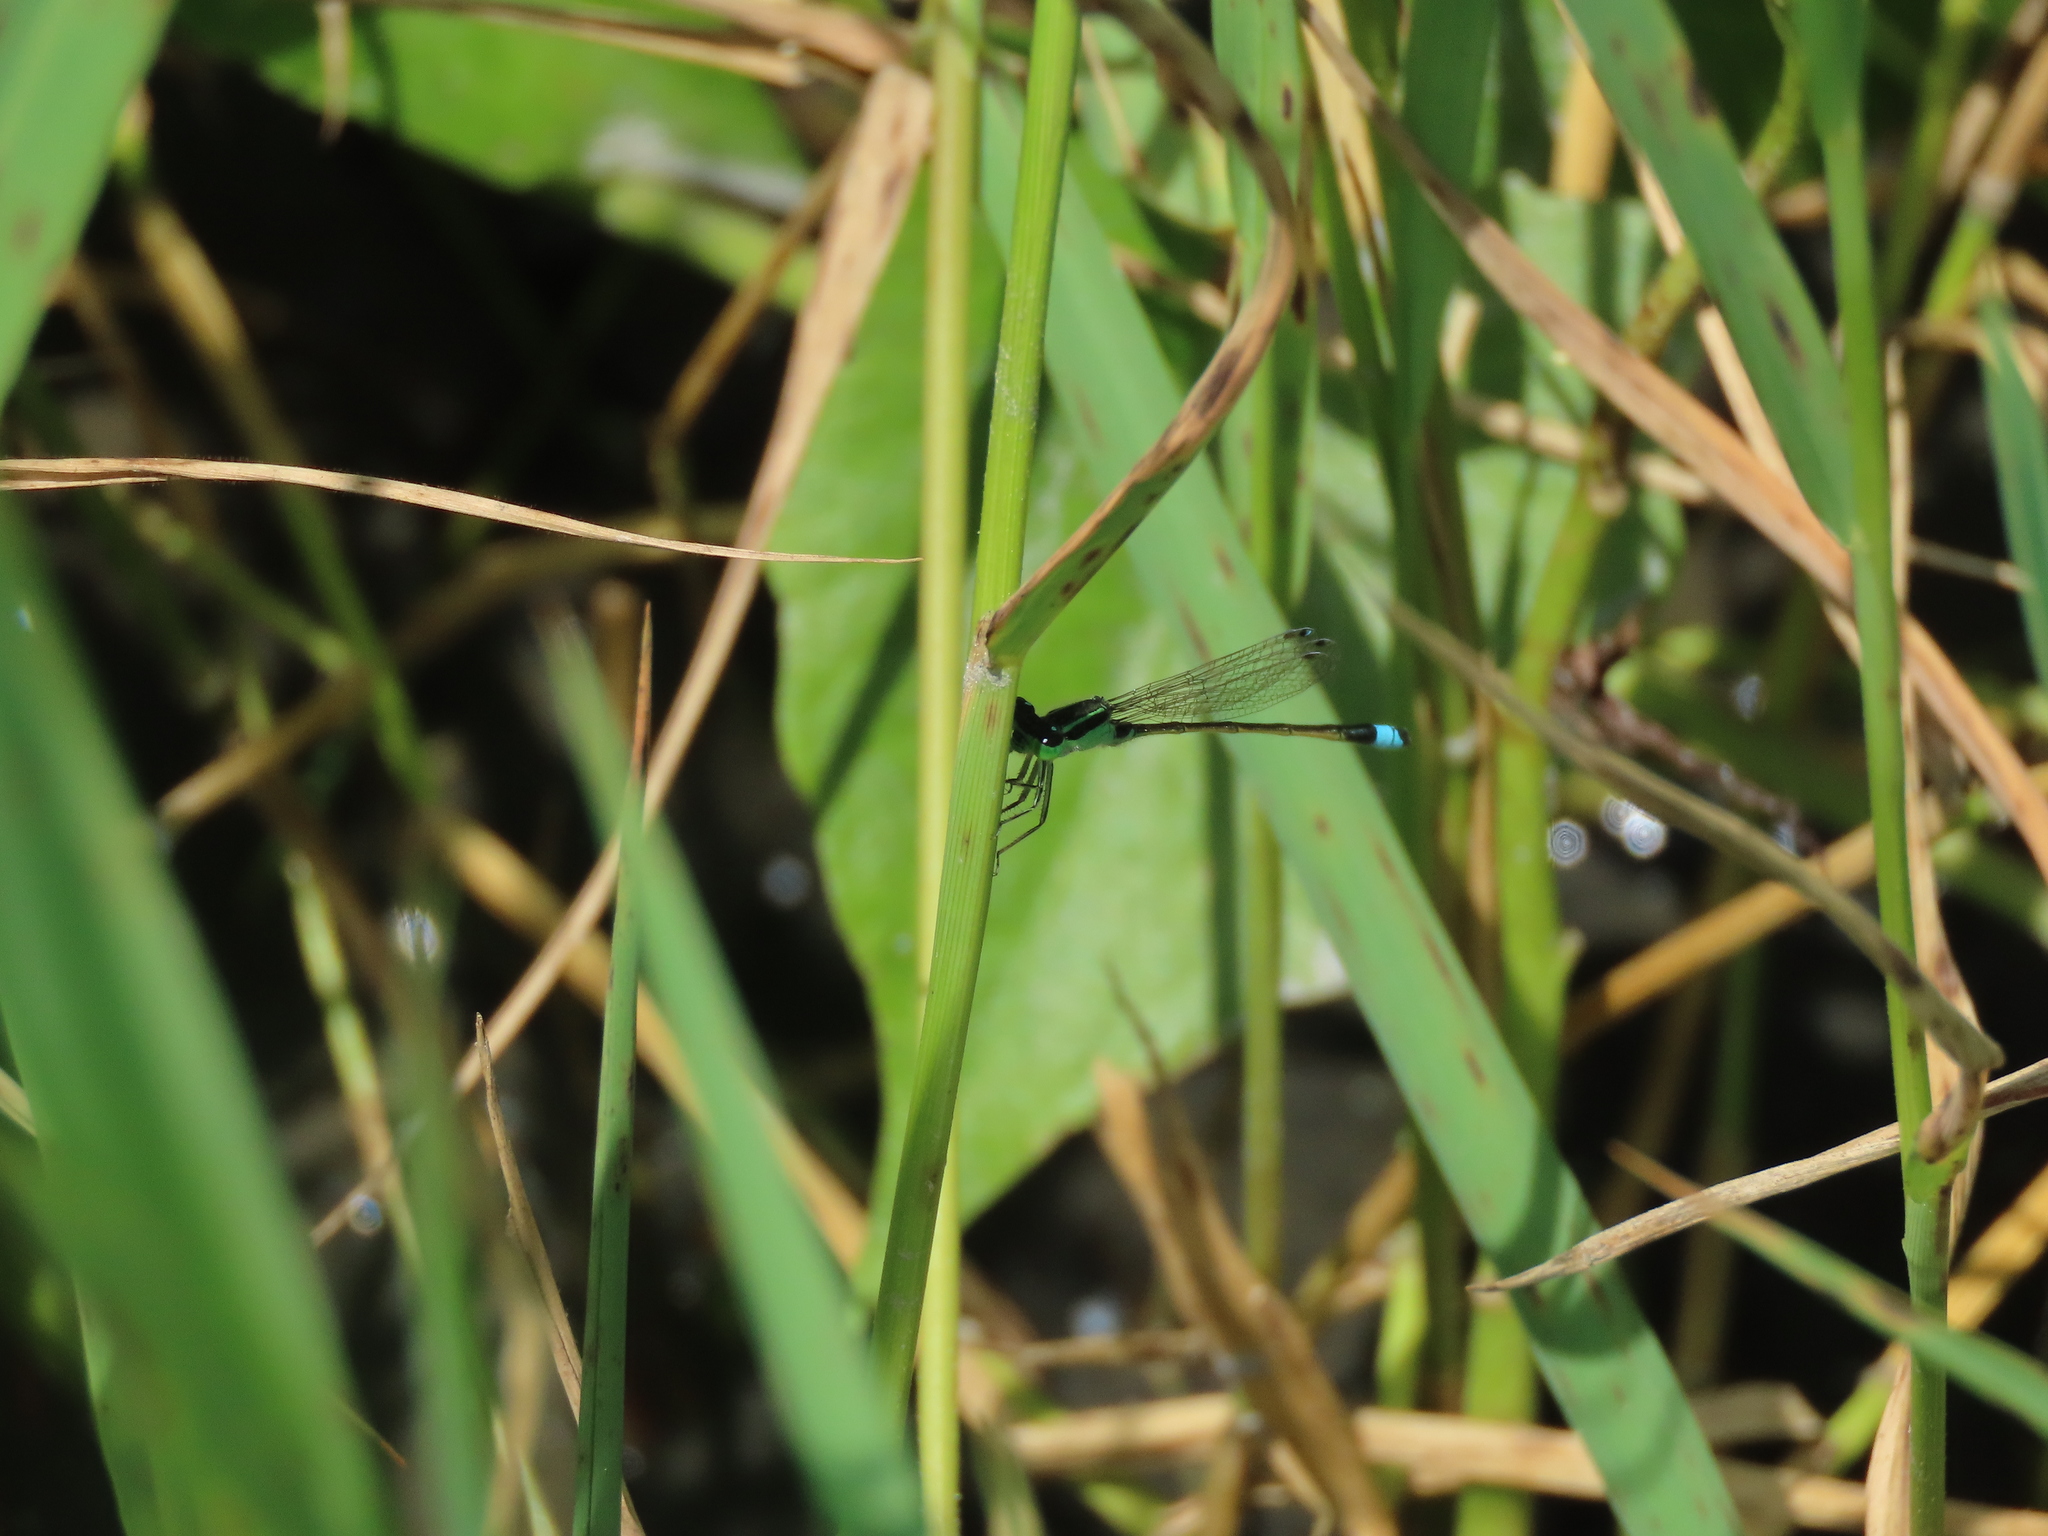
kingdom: Animalia
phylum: Arthropoda
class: Insecta
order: Odonata
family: Coenagrionidae
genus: Ischnura
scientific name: Ischnura senegalensis
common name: Tropical bluetail
